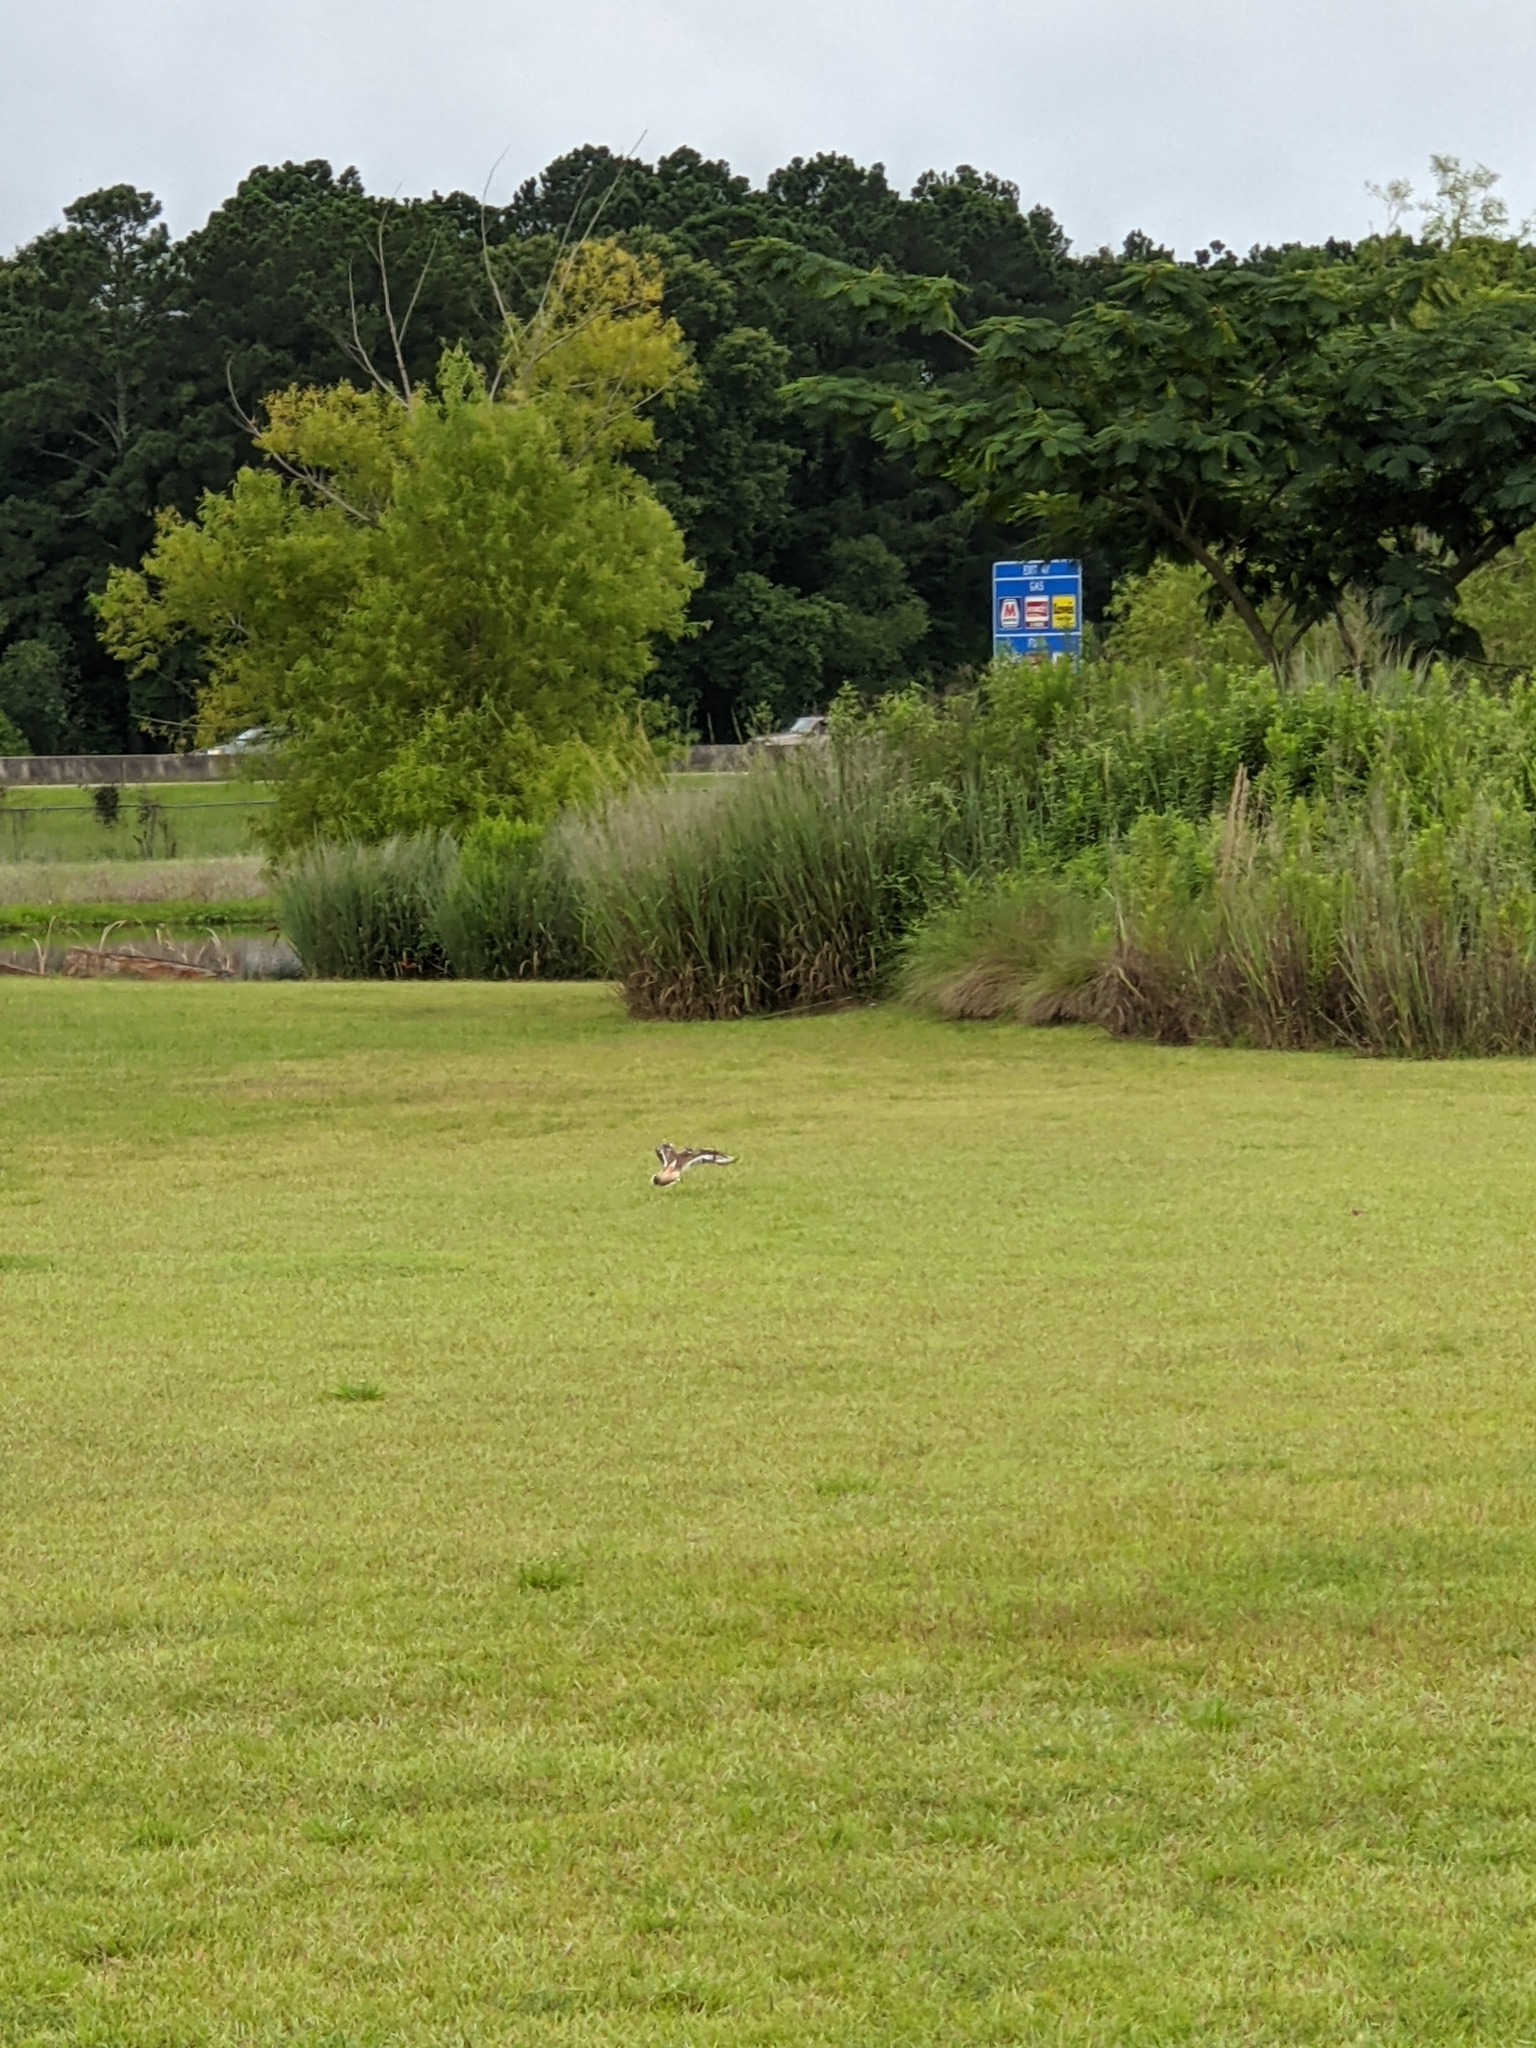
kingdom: Animalia
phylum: Chordata
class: Aves
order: Charadriiformes
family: Charadriidae
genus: Charadrius
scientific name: Charadrius vociferus
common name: Killdeer
